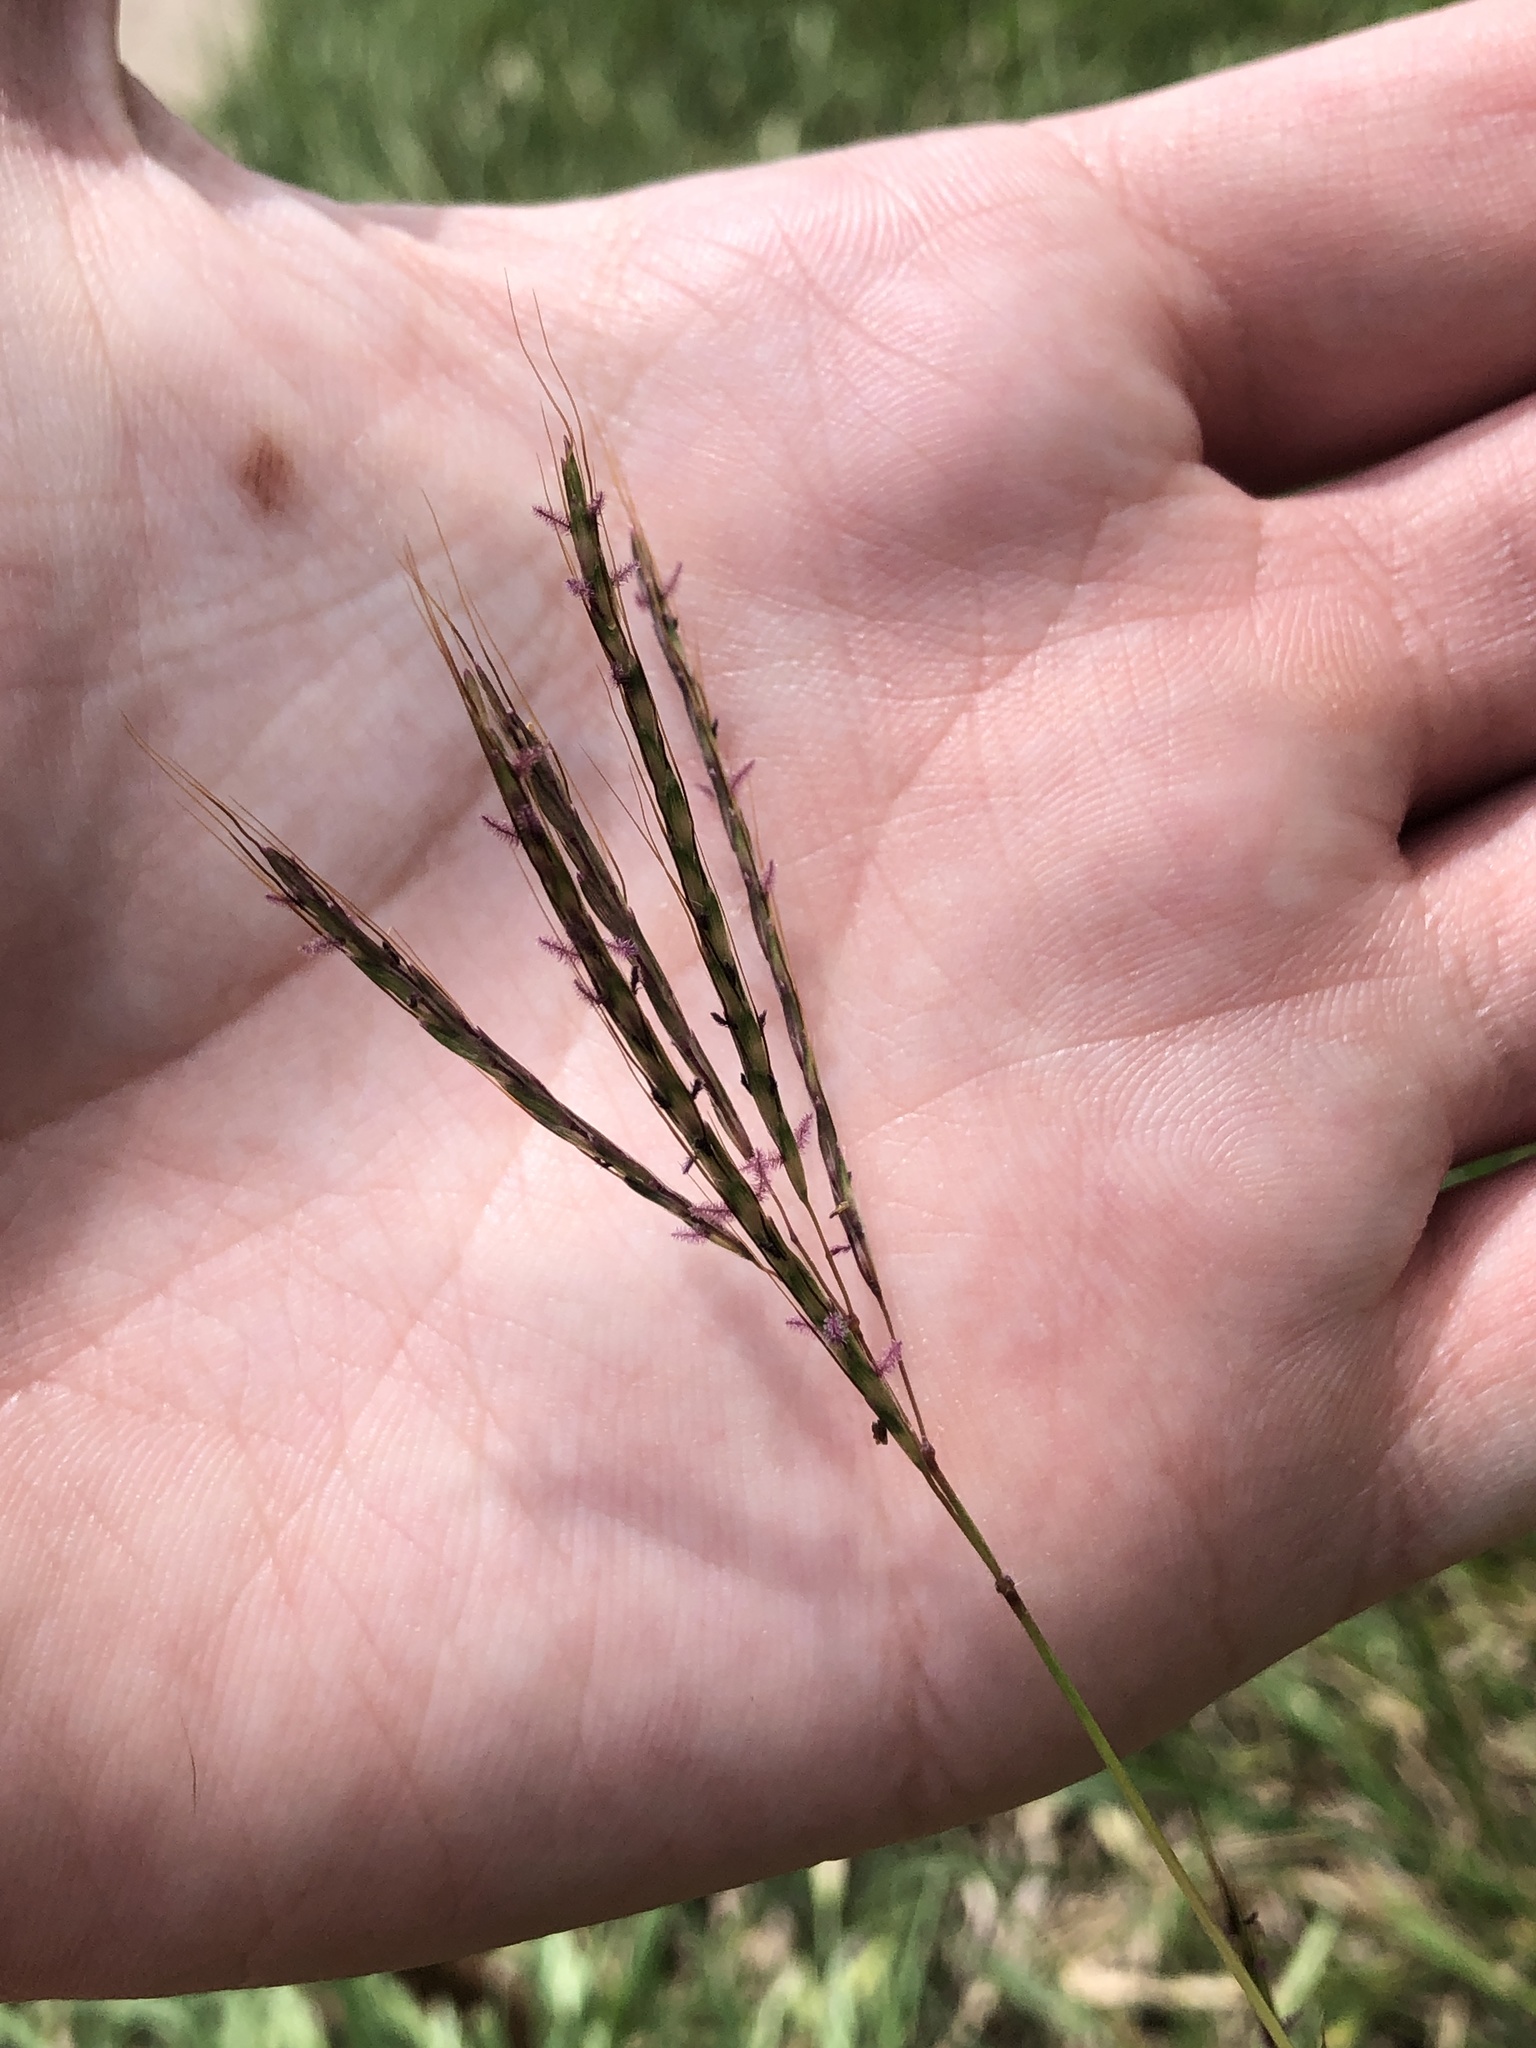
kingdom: Plantae
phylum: Tracheophyta
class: Liliopsida
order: Poales
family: Poaceae
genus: Bothriochloa
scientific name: Bothriochloa ischaemum
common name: Yellow bluestem
